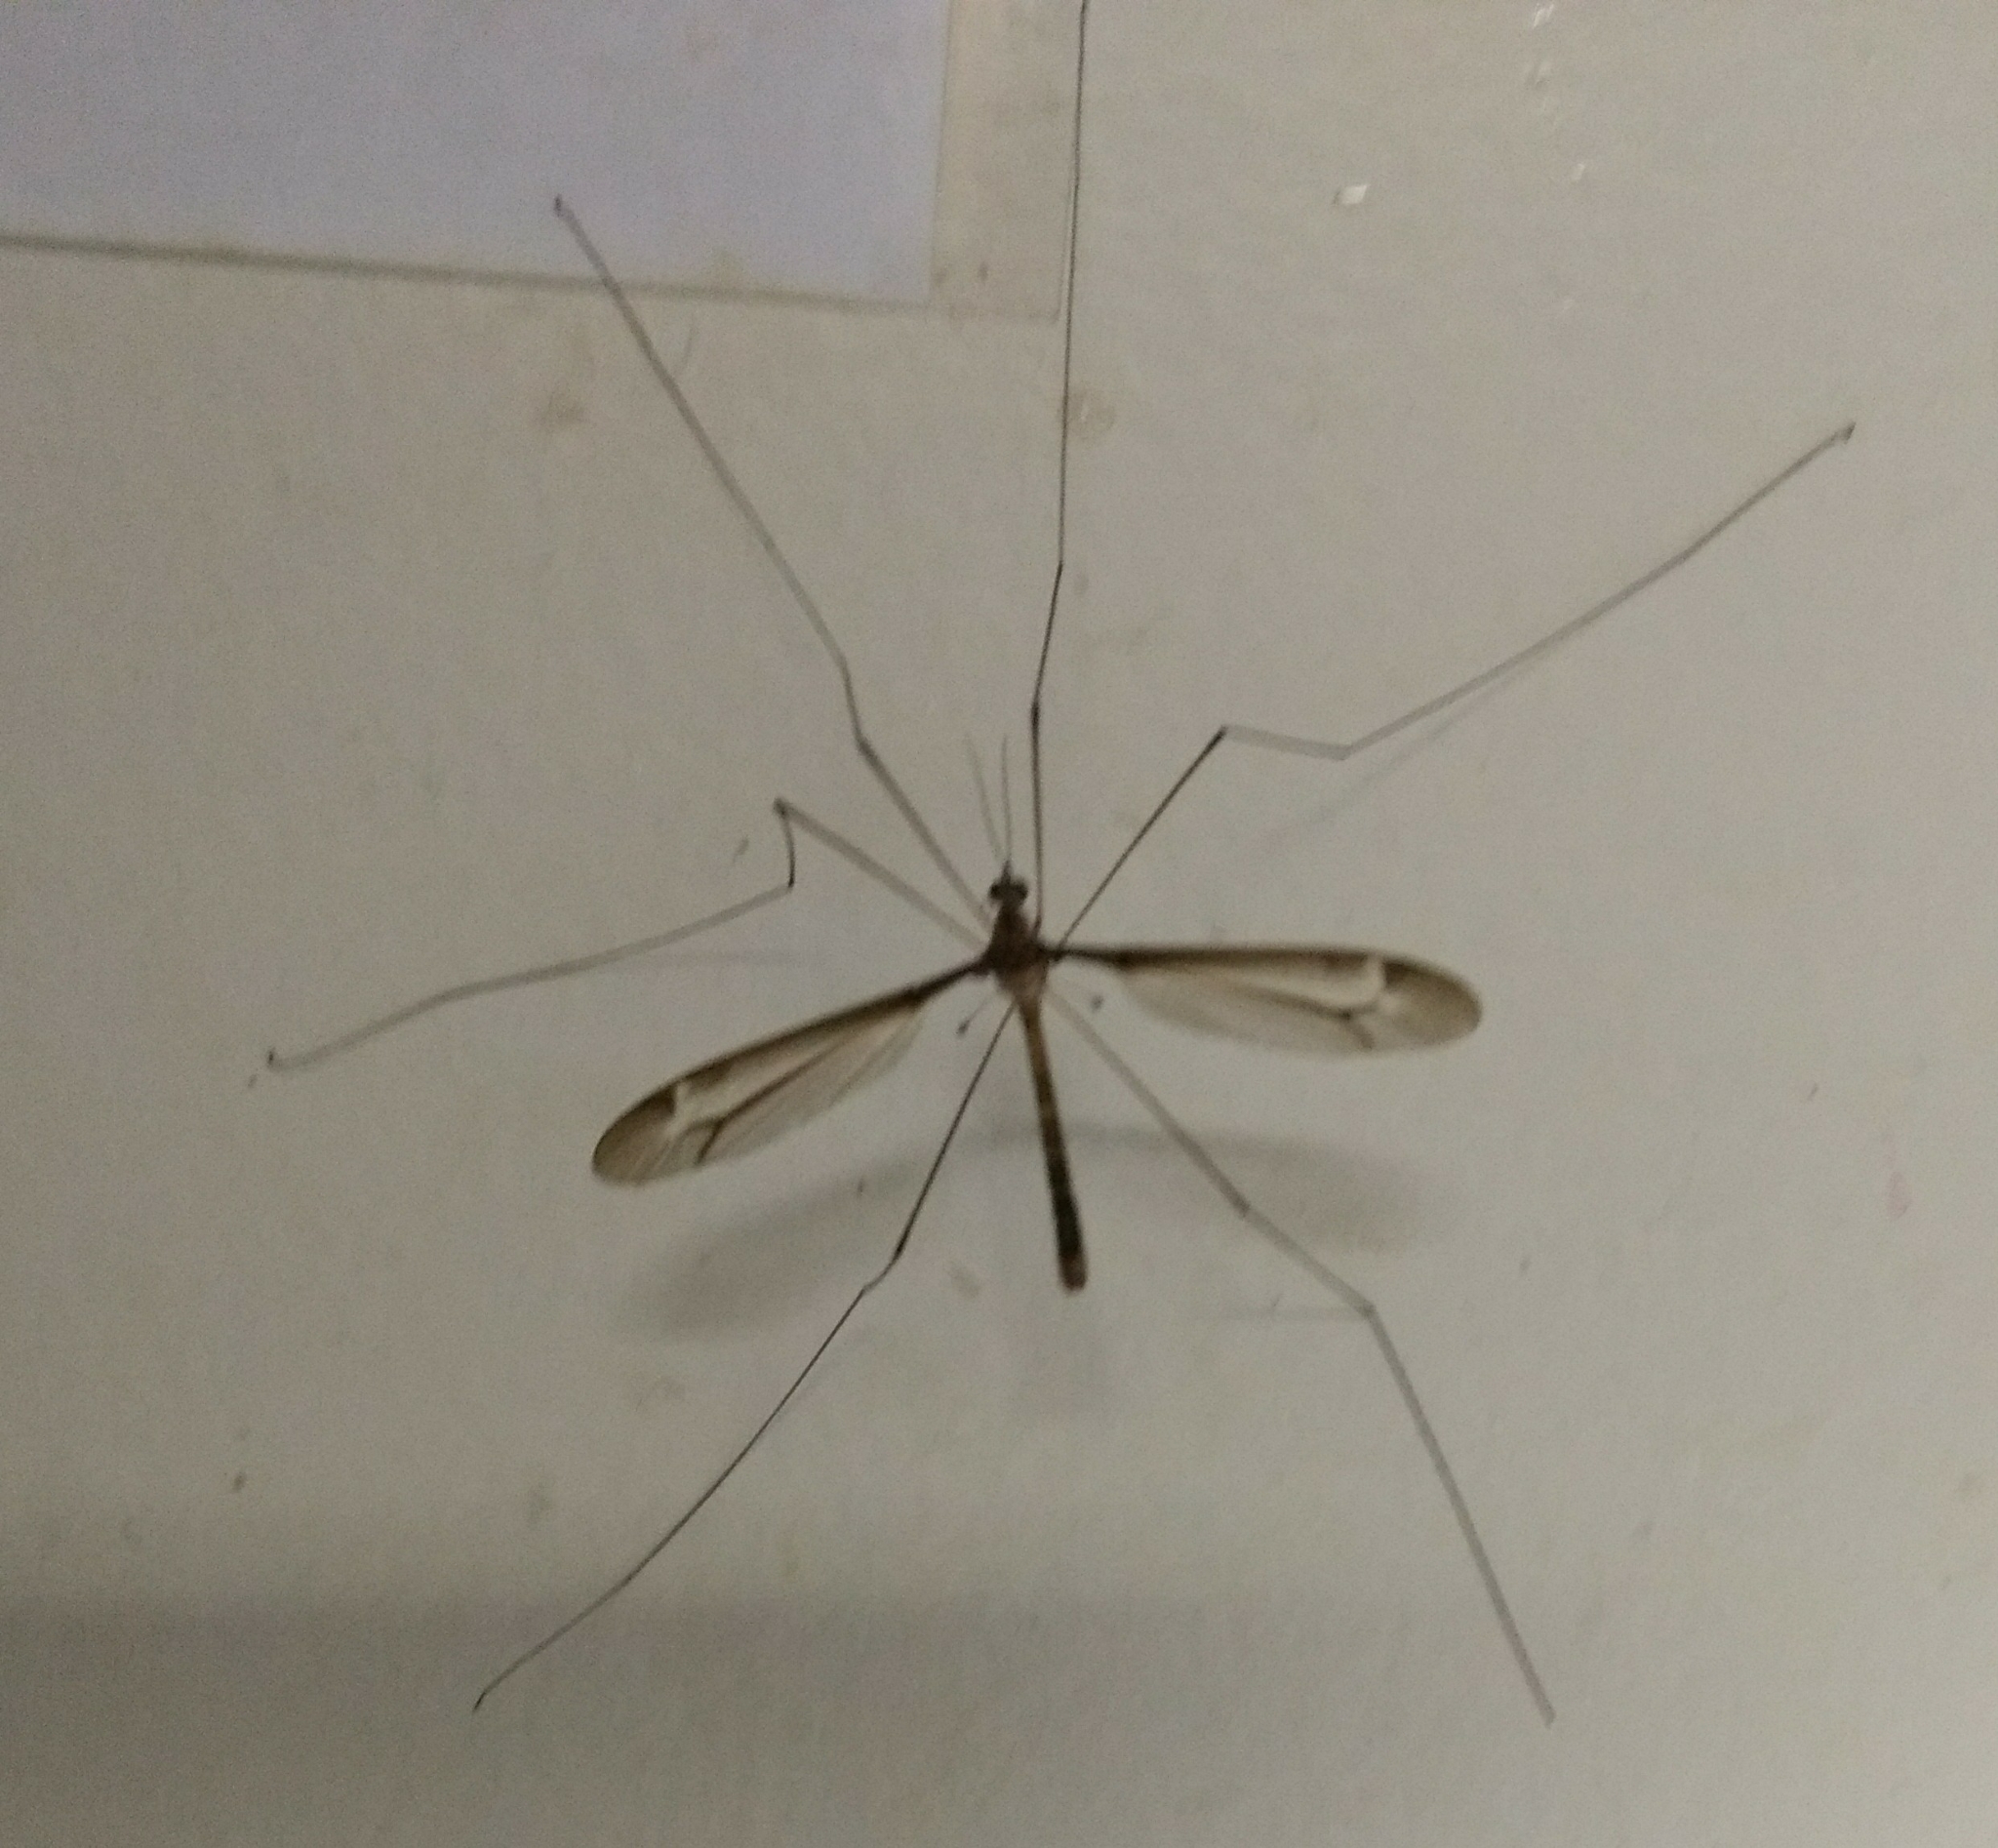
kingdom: Animalia
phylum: Arthropoda
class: Insecta
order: Diptera
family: Tipulidae
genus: Tipula
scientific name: Tipula tricolor
